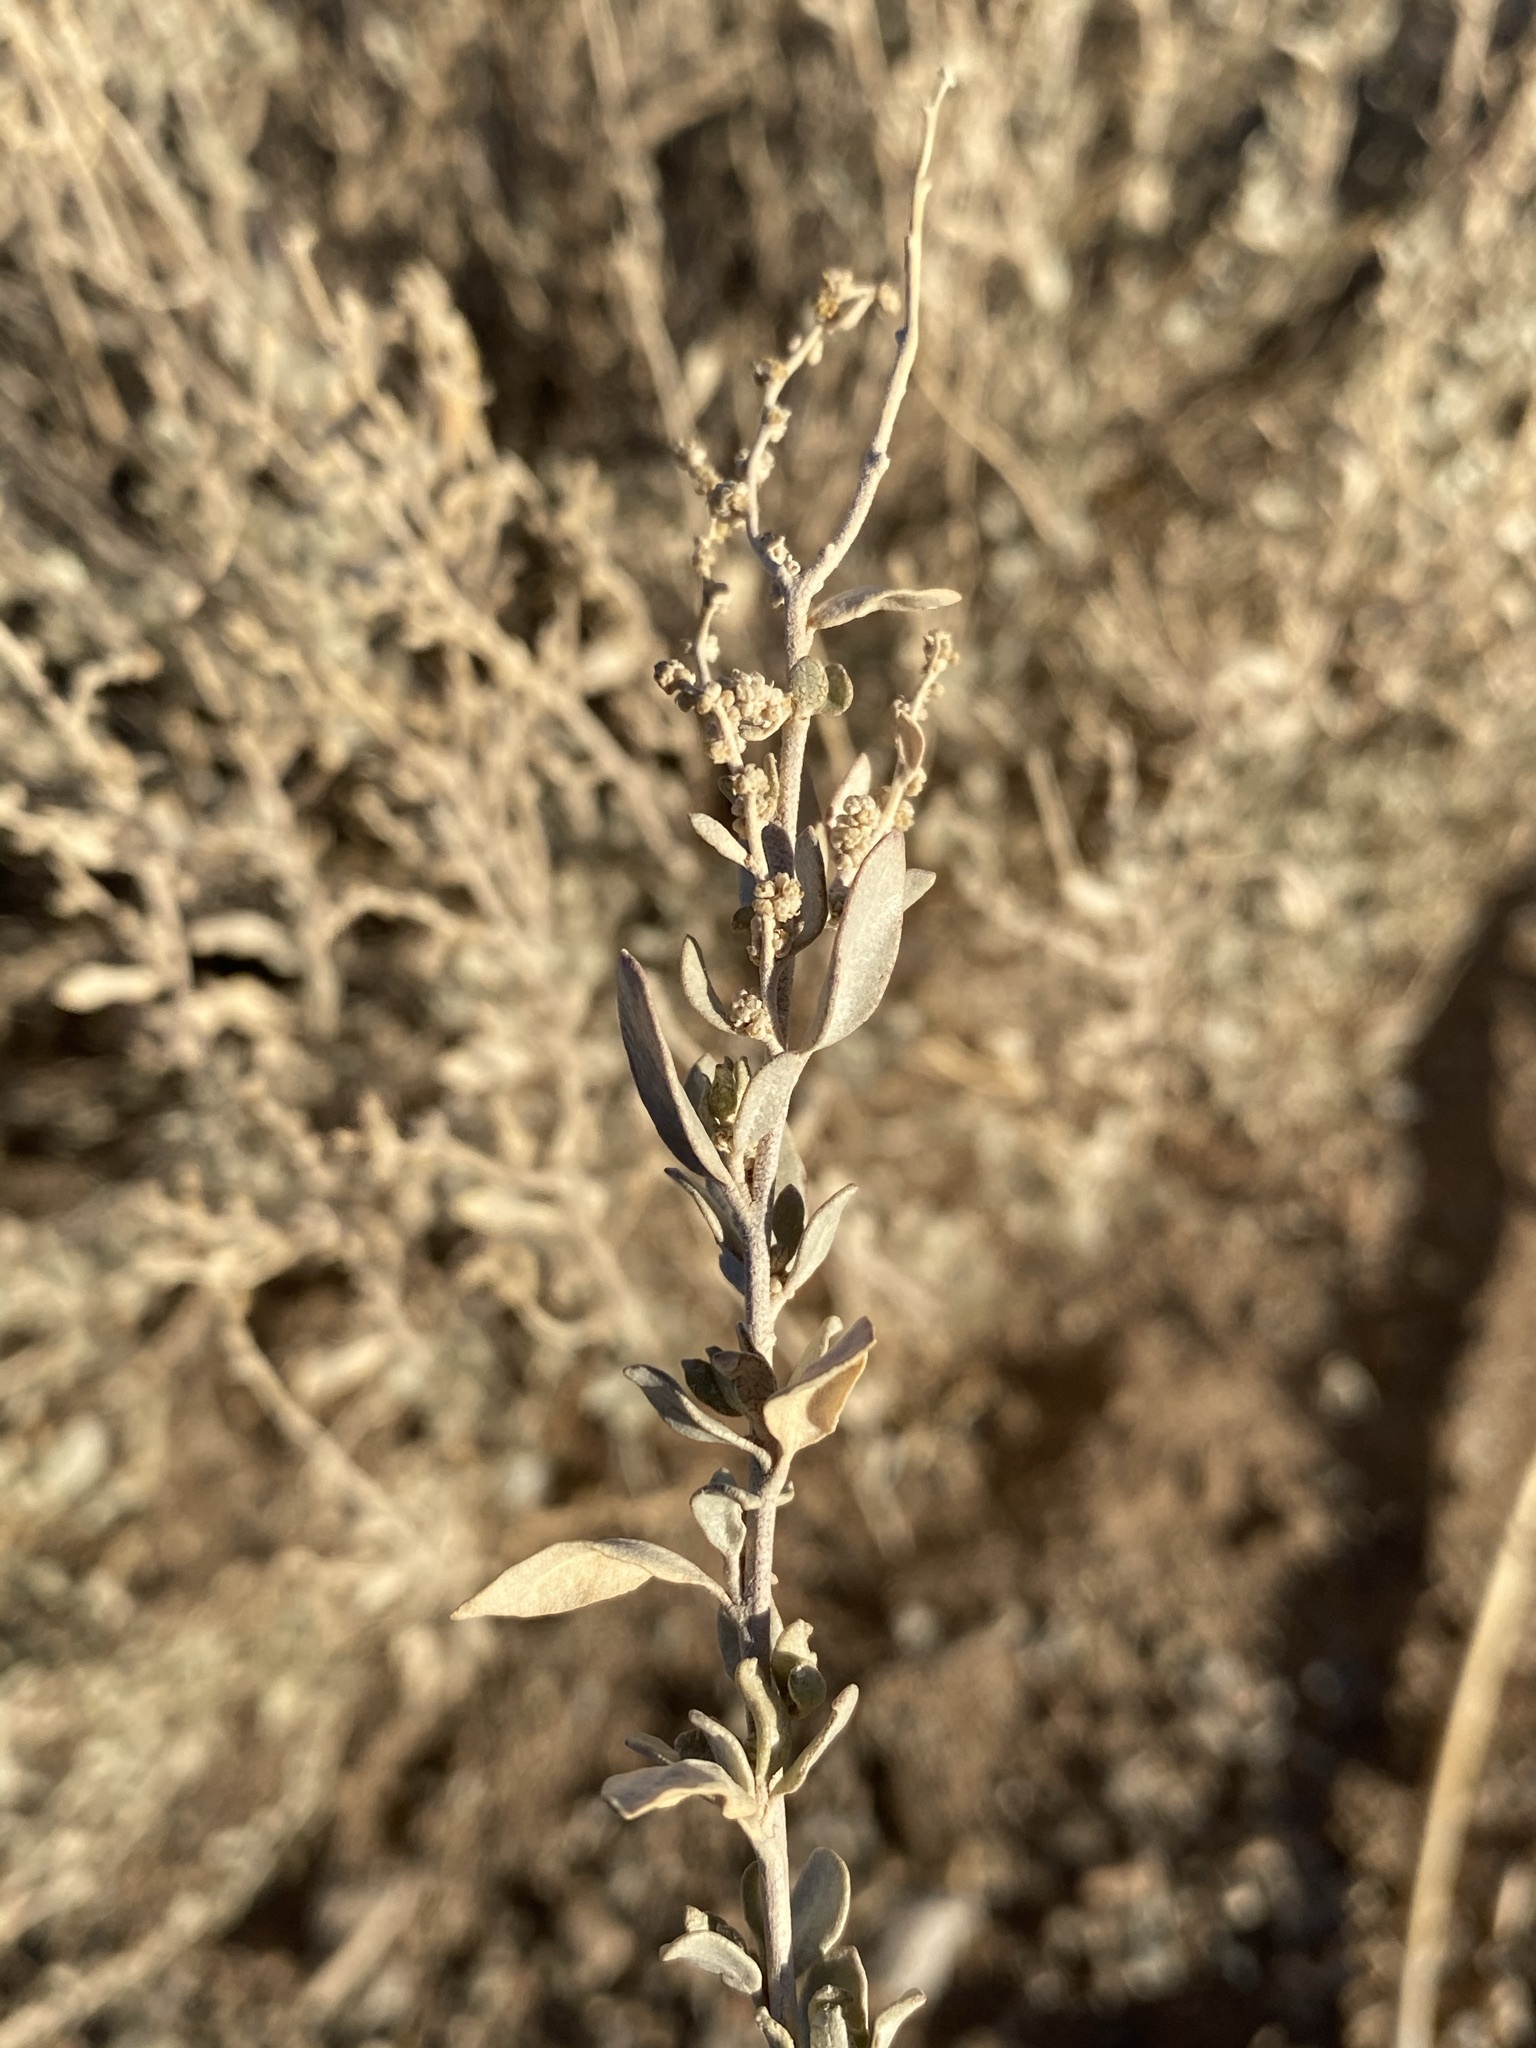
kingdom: Plantae
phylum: Tracheophyta
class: Magnoliopsida
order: Caryophyllales
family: Amaranthaceae
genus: Atriplex
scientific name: Atriplex obovata
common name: New mexico saltbush
